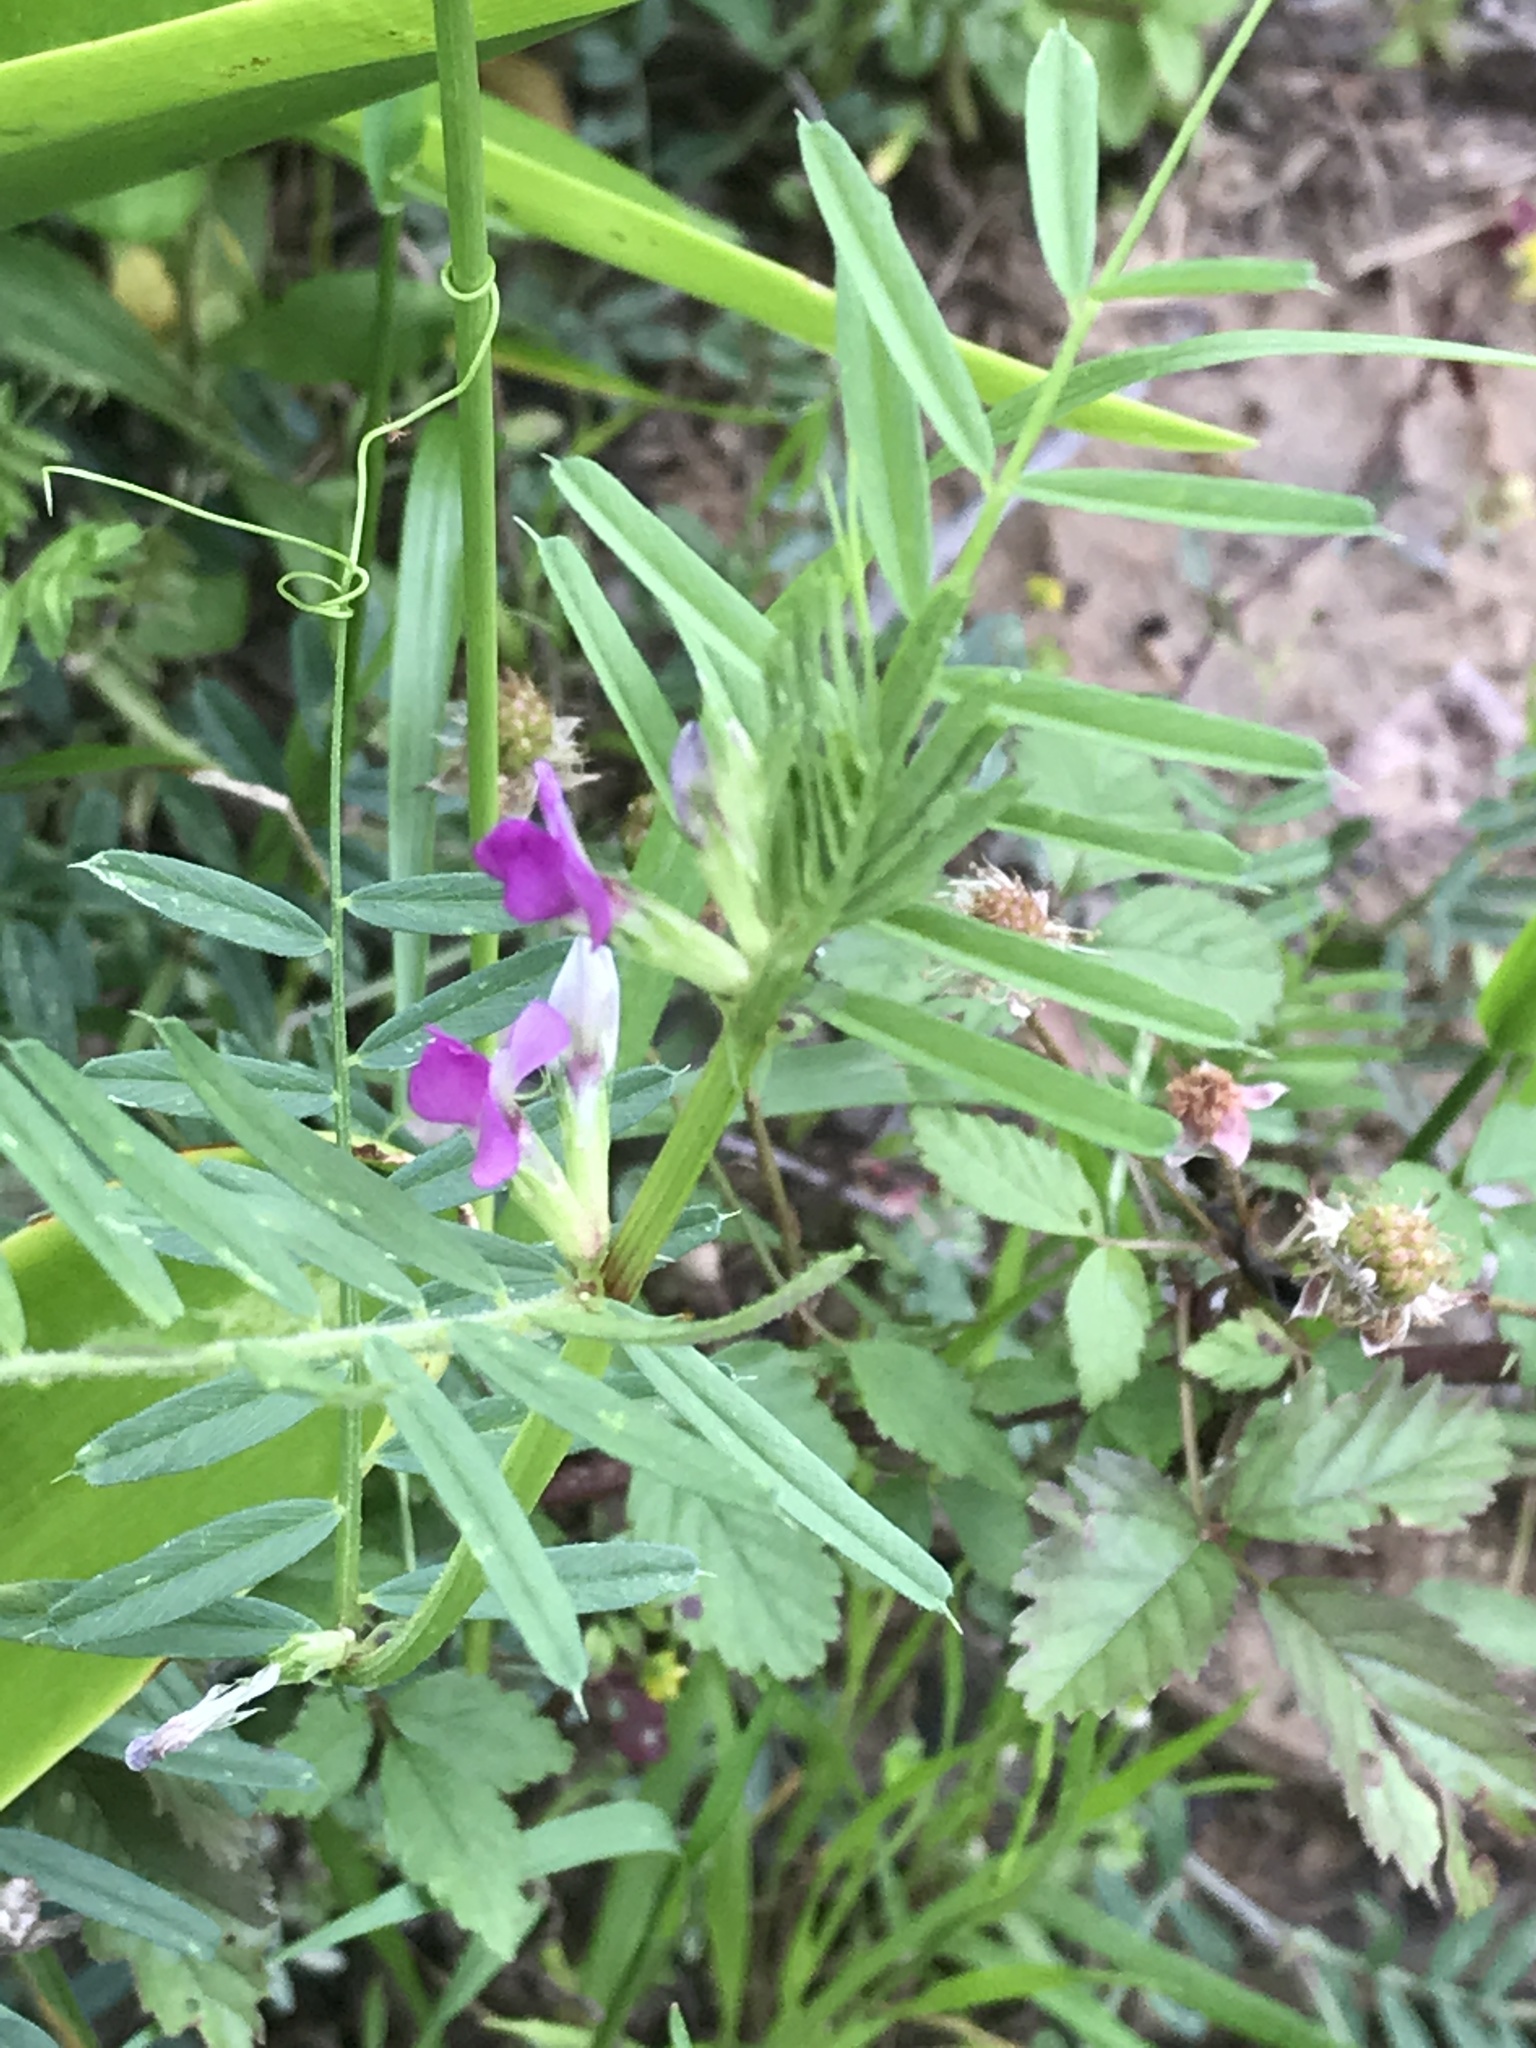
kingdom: Plantae
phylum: Tracheophyta
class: Magnoliopsida
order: Fabales
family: Fabaceae
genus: Vicia
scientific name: Vicia sativa
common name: Garden vetch
